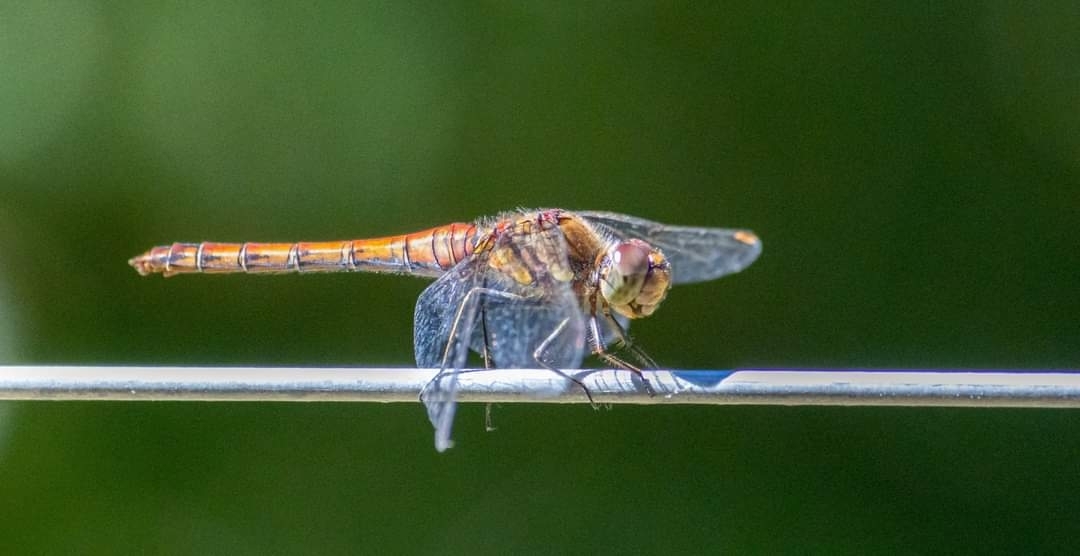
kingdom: Animalia
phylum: Arthropoda
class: Insecta
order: Odonata
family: Libellulidae
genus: Sympetrum
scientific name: Sympetrum striolatum
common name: Common darter
